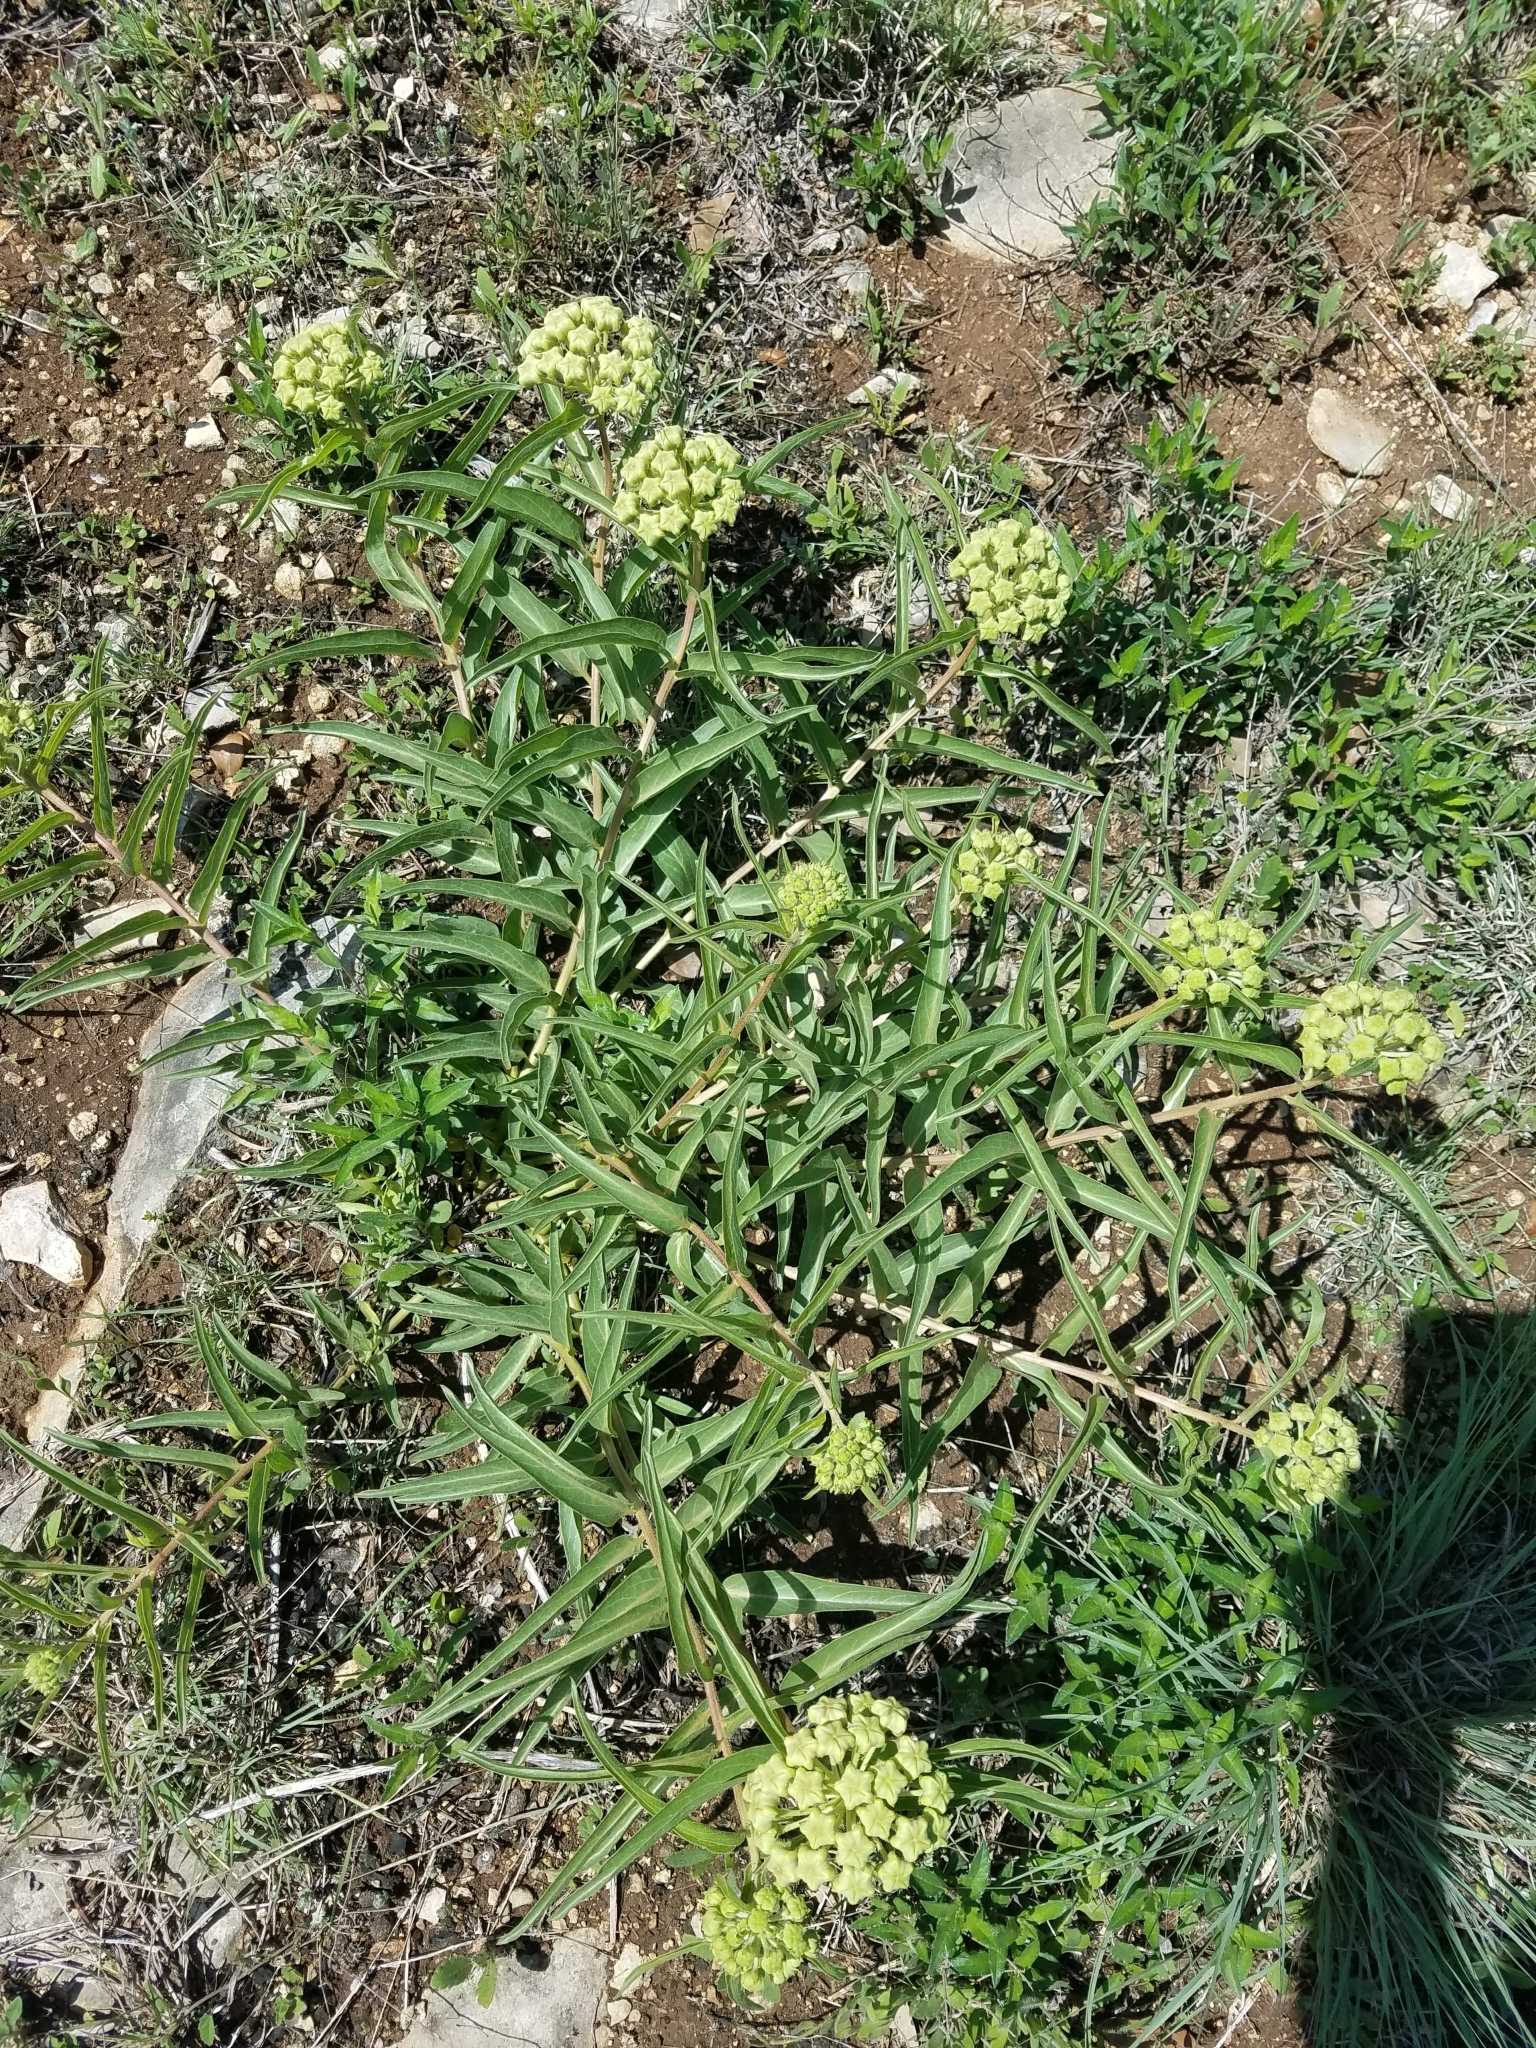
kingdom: Plantae
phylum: Tracheophyta
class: Magnoliopsida
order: Gentianales
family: Apocynaceae
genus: Asclepias
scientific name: Asclepias asperula
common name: Antelope horns
